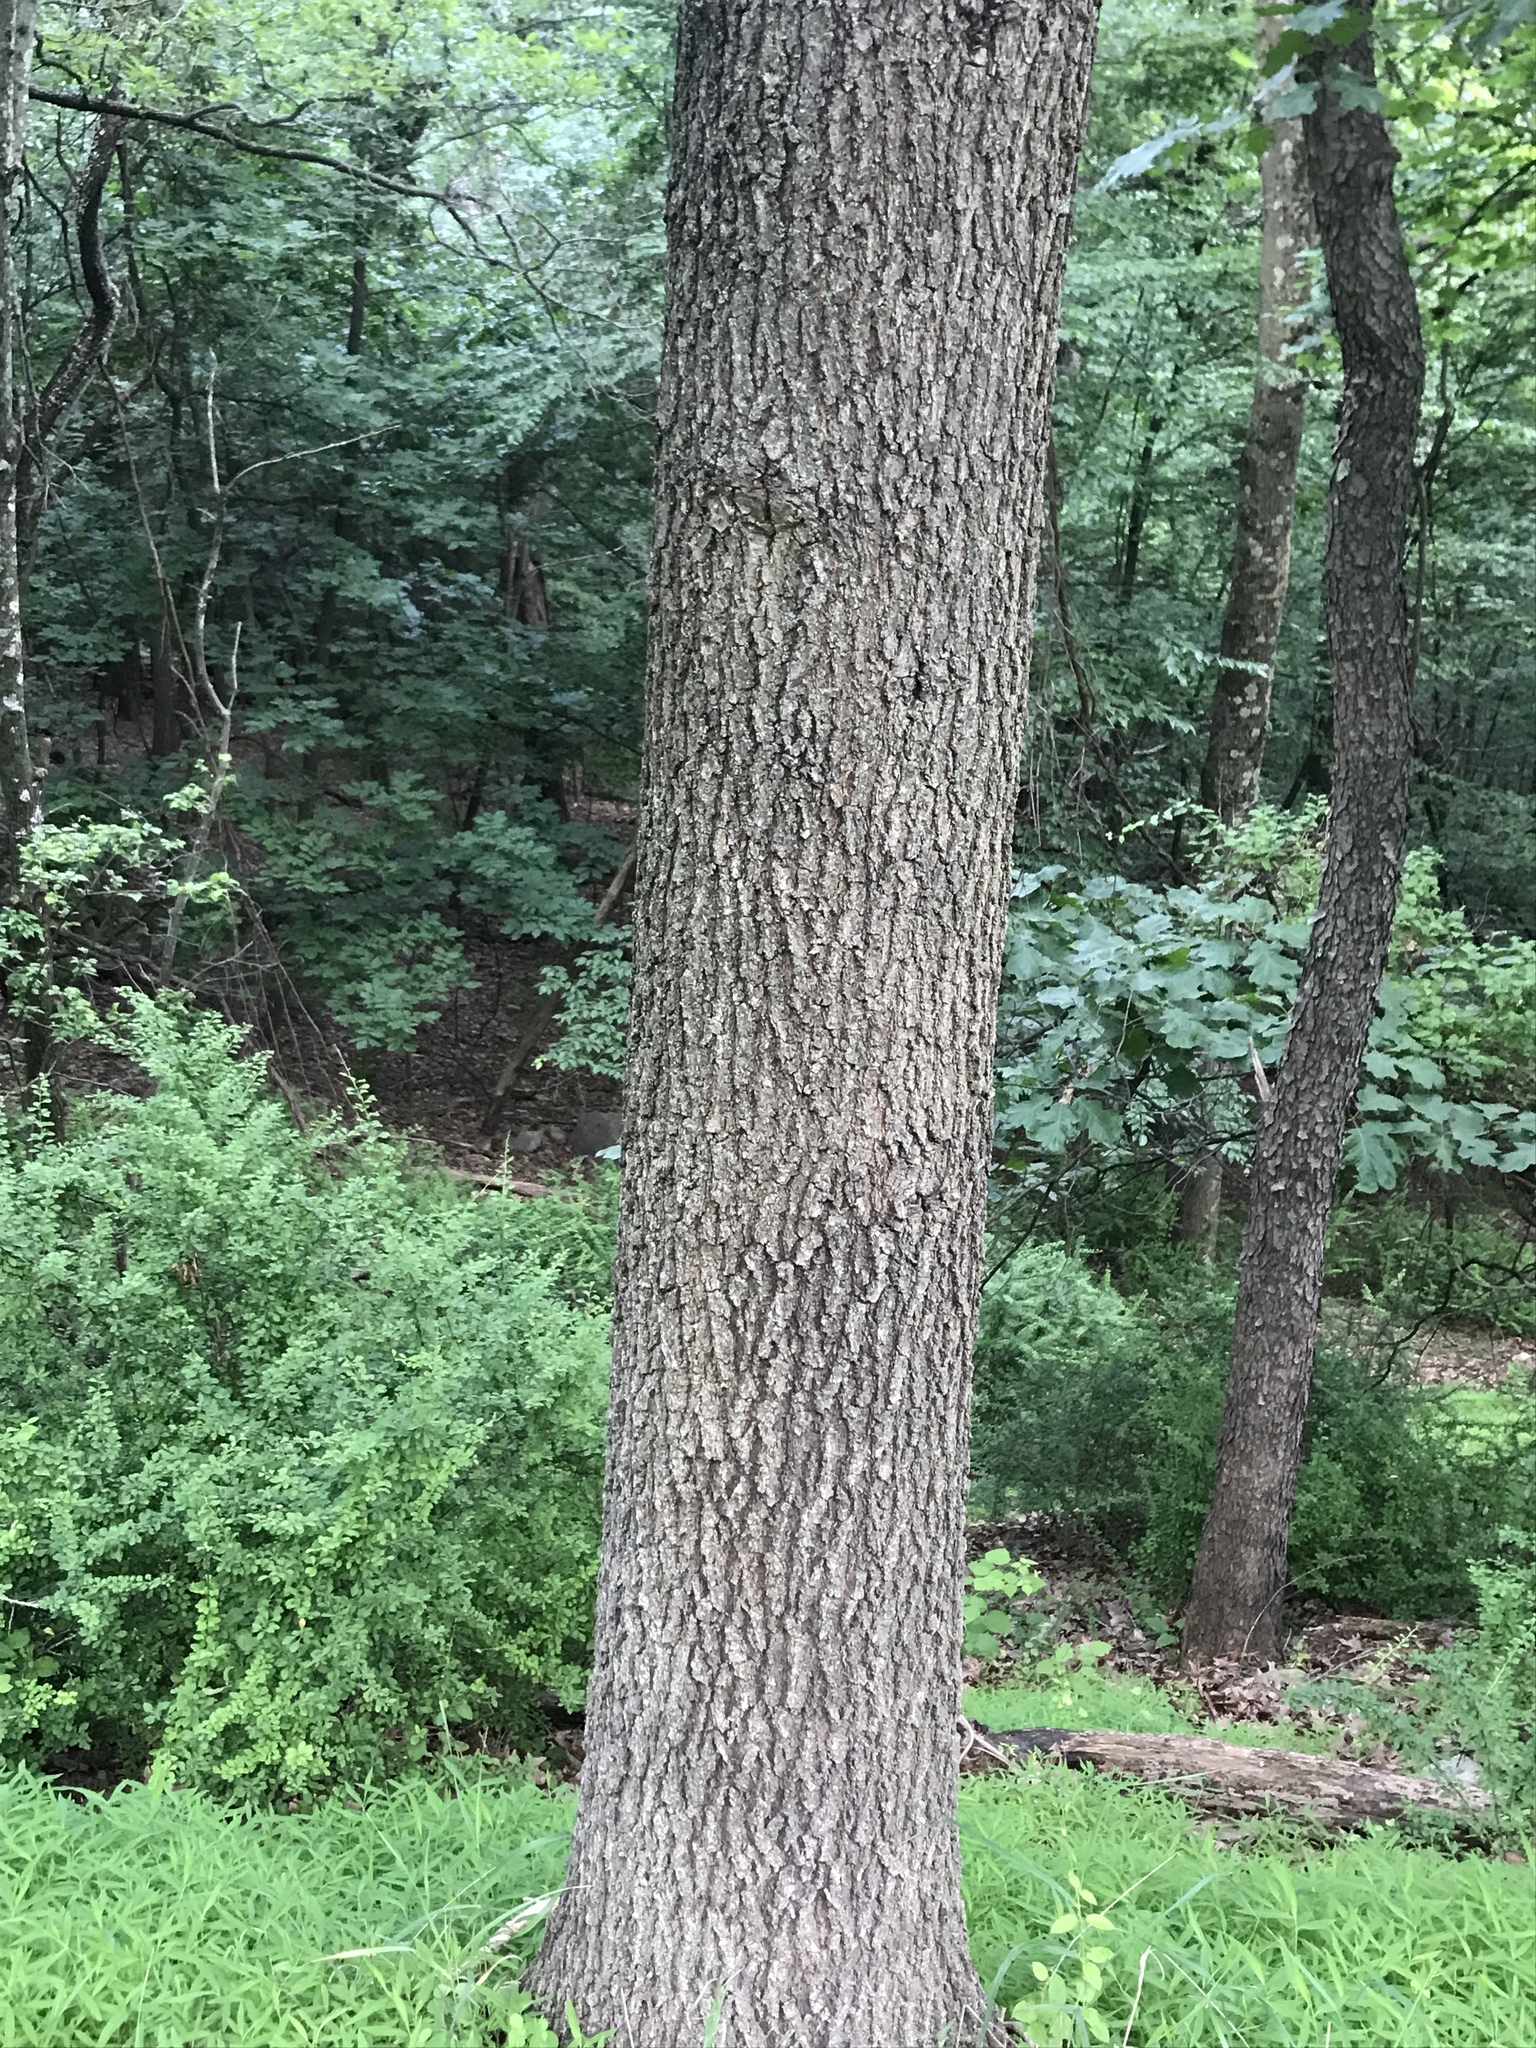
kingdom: Plantae
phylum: Tracheophyta
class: Magnoliopsida
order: Fagales
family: Fagaceae
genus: Quercus
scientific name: Quercus velutina
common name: Black oak
